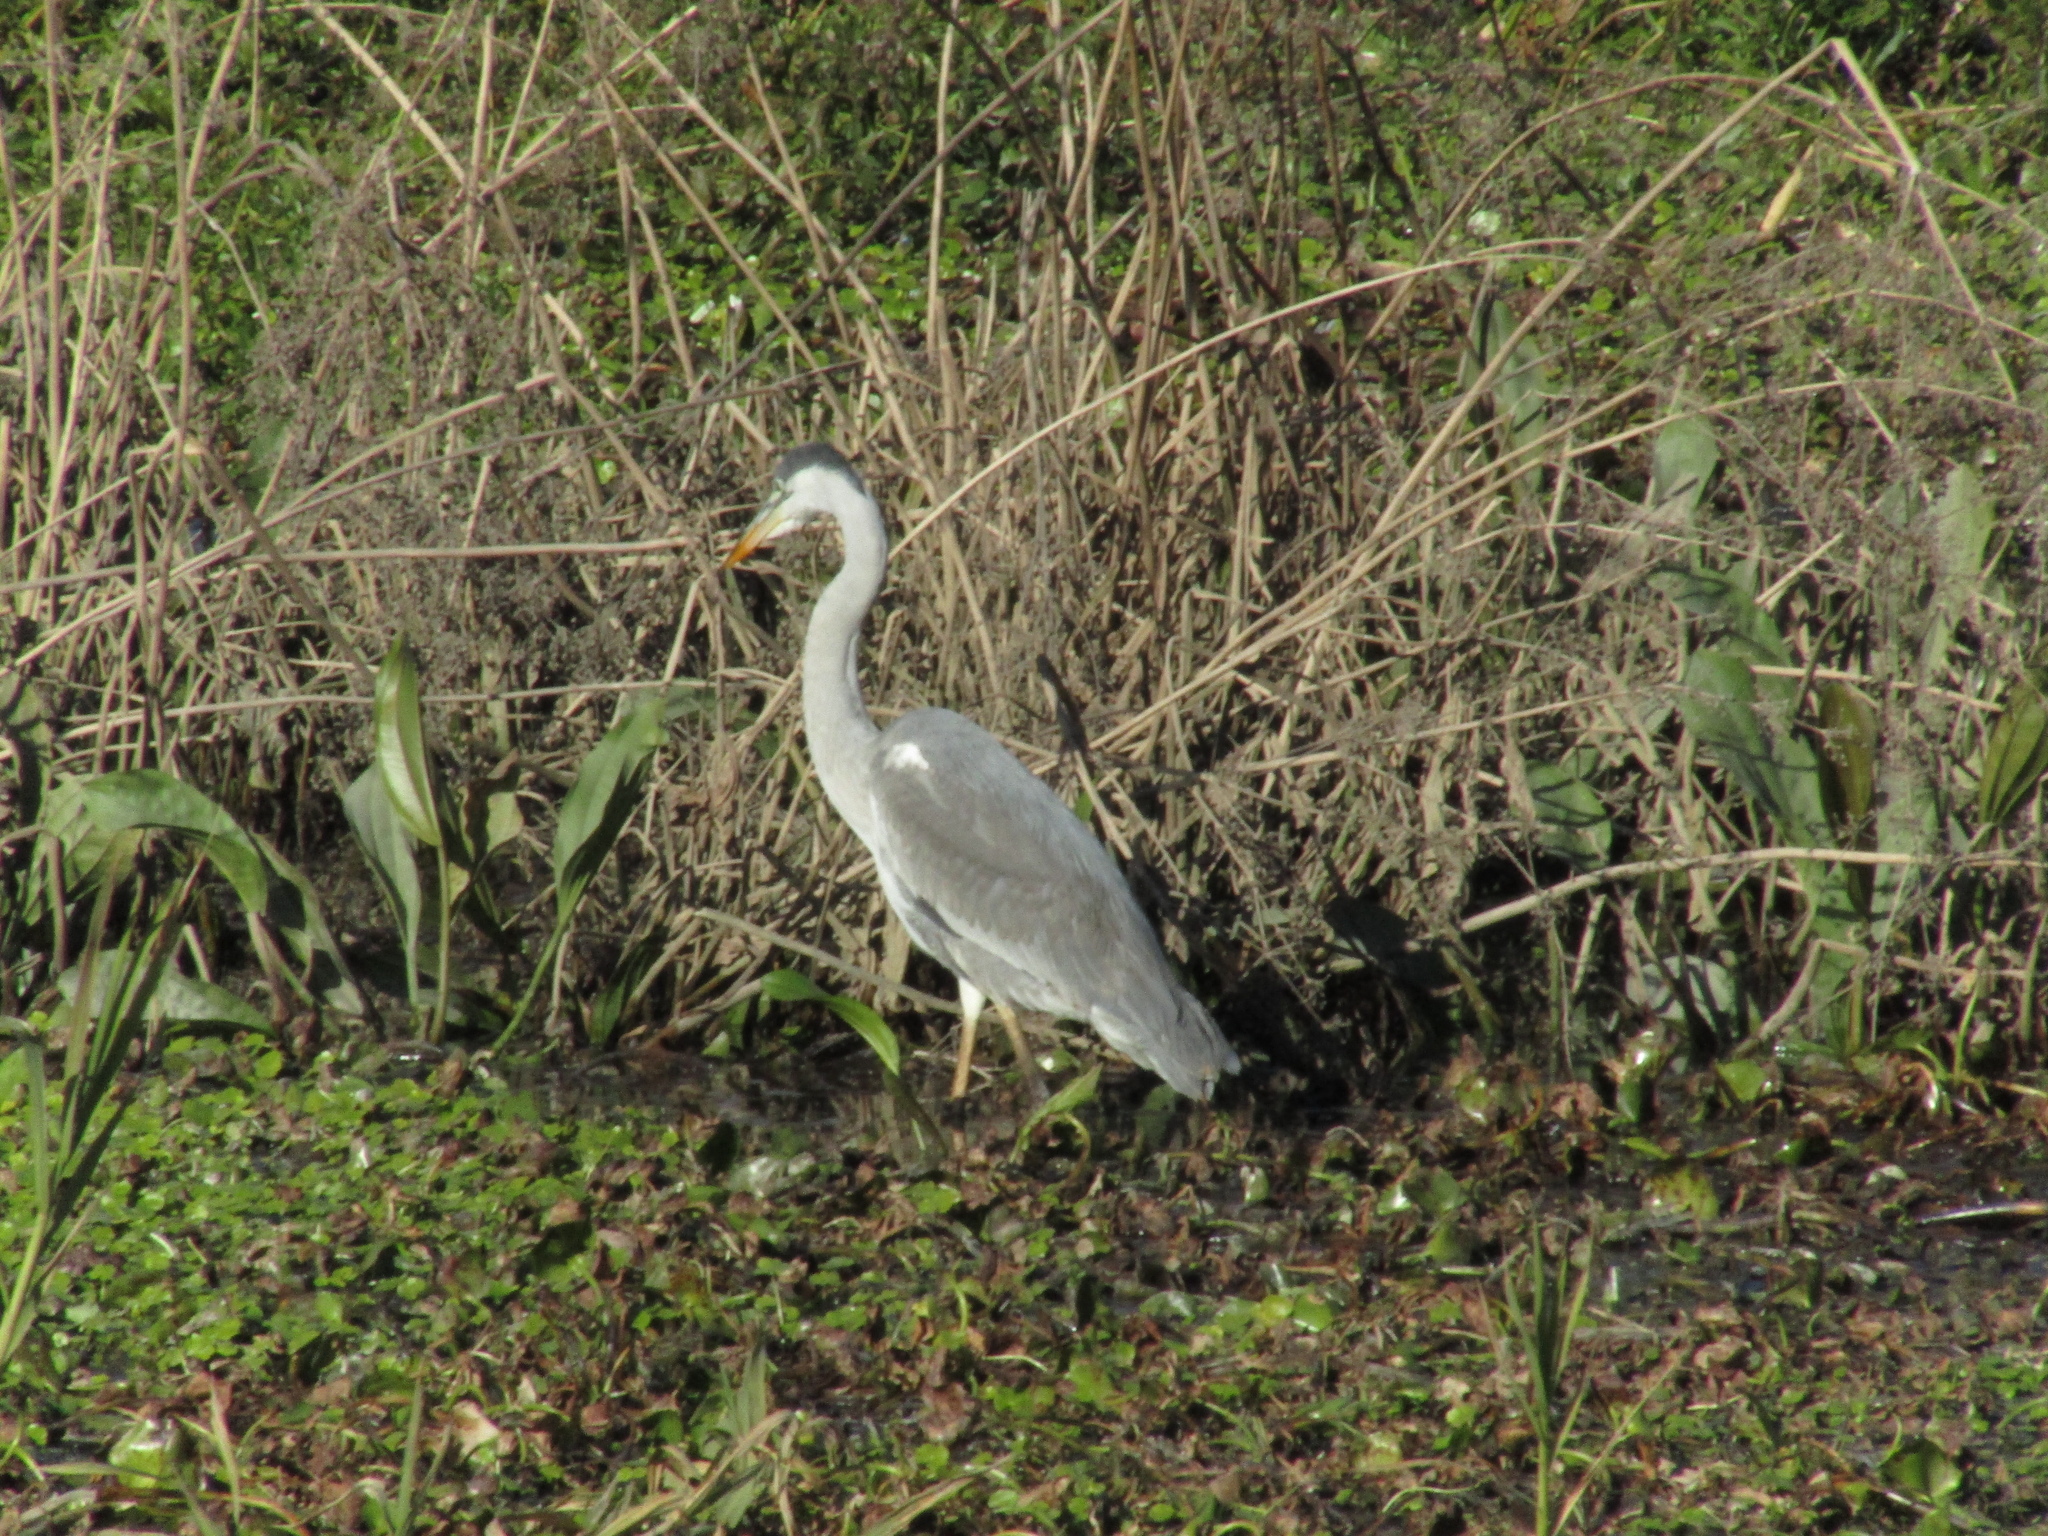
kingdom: Animalia
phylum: Chordata
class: Aves
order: Pelecaniformes
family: Ardeidae
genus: Ardea
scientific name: Ardea cocoi
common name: Cocoi heron
